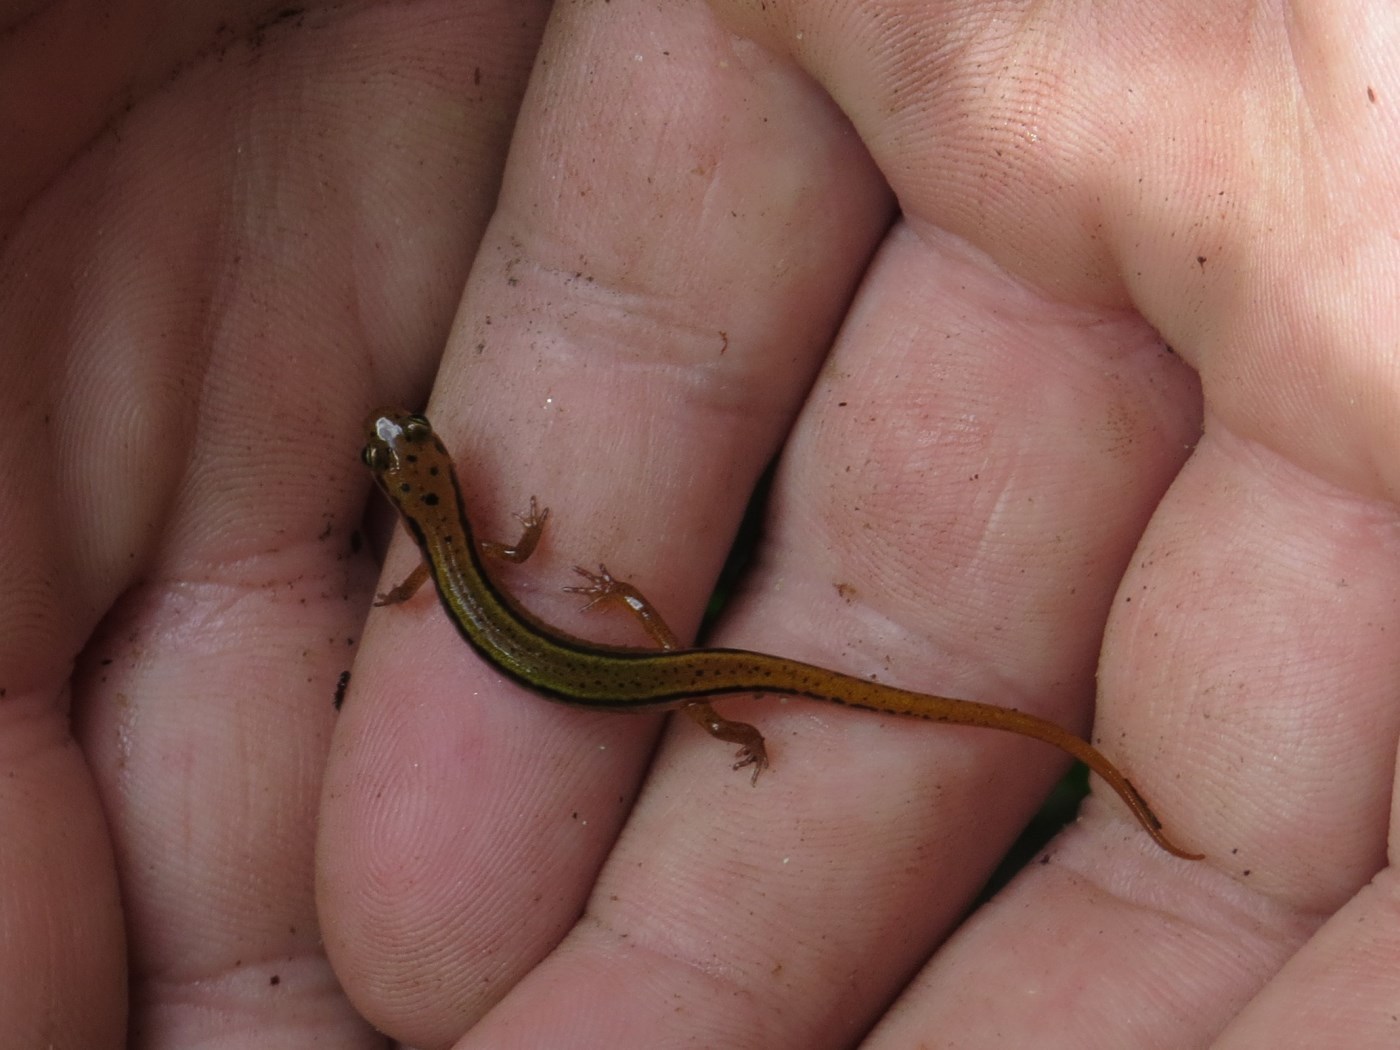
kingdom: Animalia
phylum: Chordata
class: Amphibia
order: Caudata
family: Plethodontidae
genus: Eurycea
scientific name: Eurycea wilderae
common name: Blue ridge two-lined salamander
